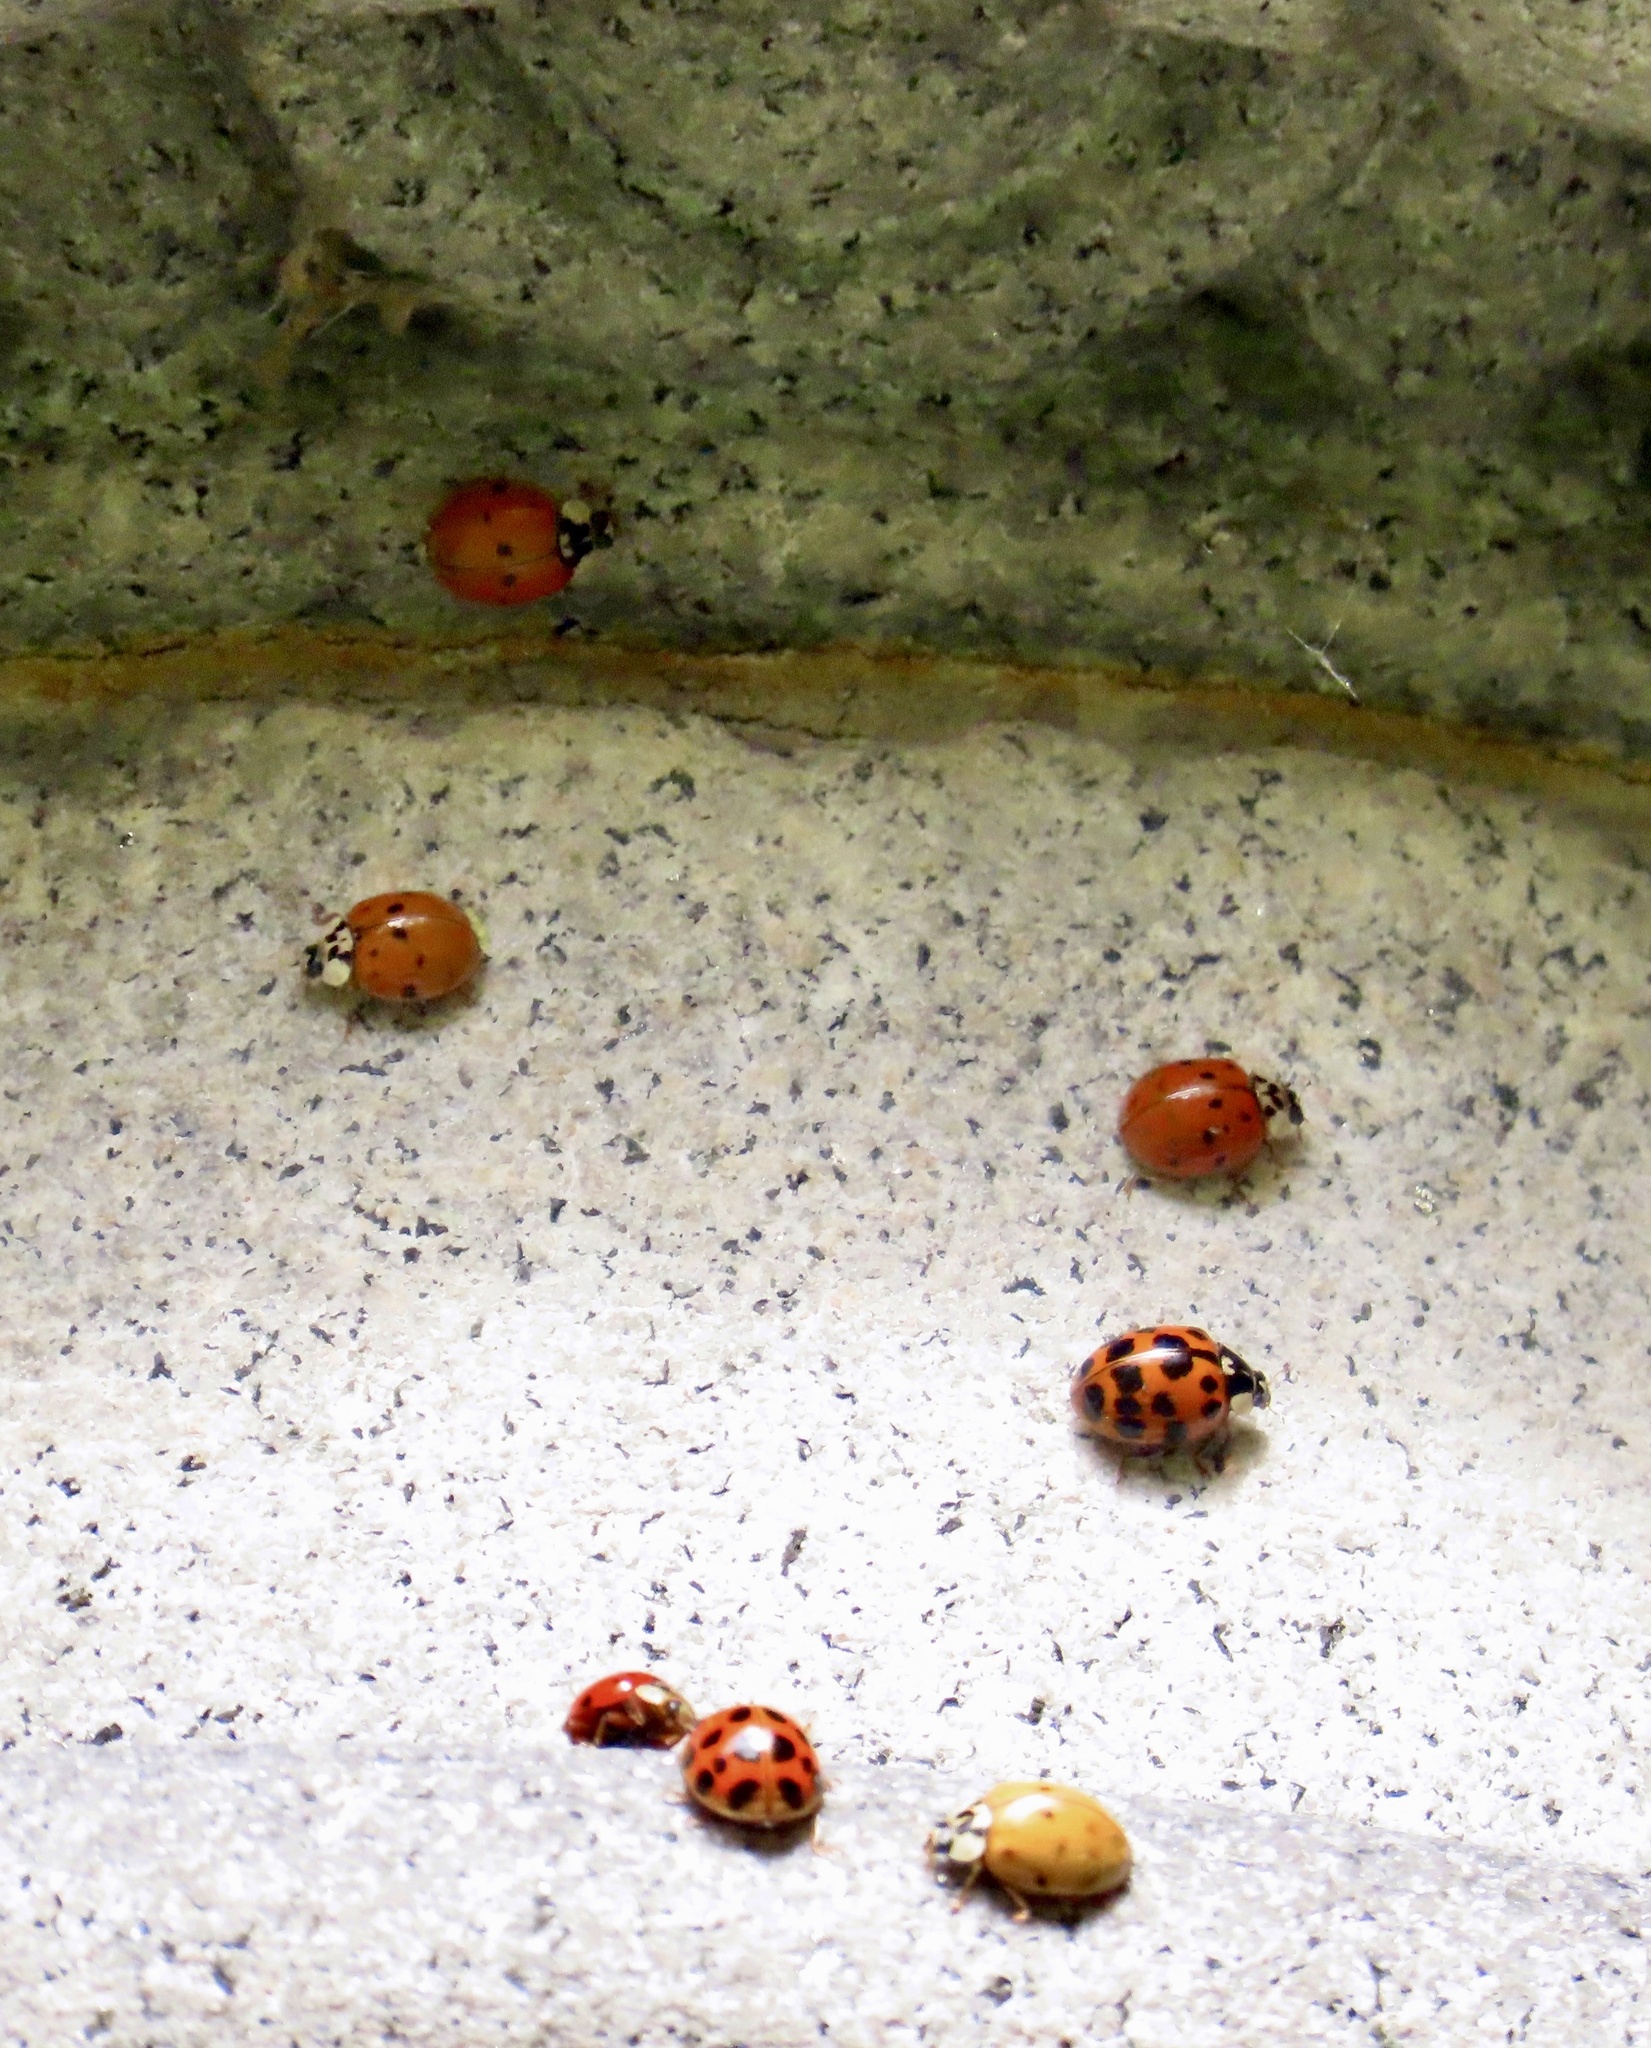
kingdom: Animalia
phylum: Arthropoda
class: Insecta
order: Coleoptera
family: Coccinellidae
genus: Harmonia
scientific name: Harmonia axyridis
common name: Harlequin ladybird
